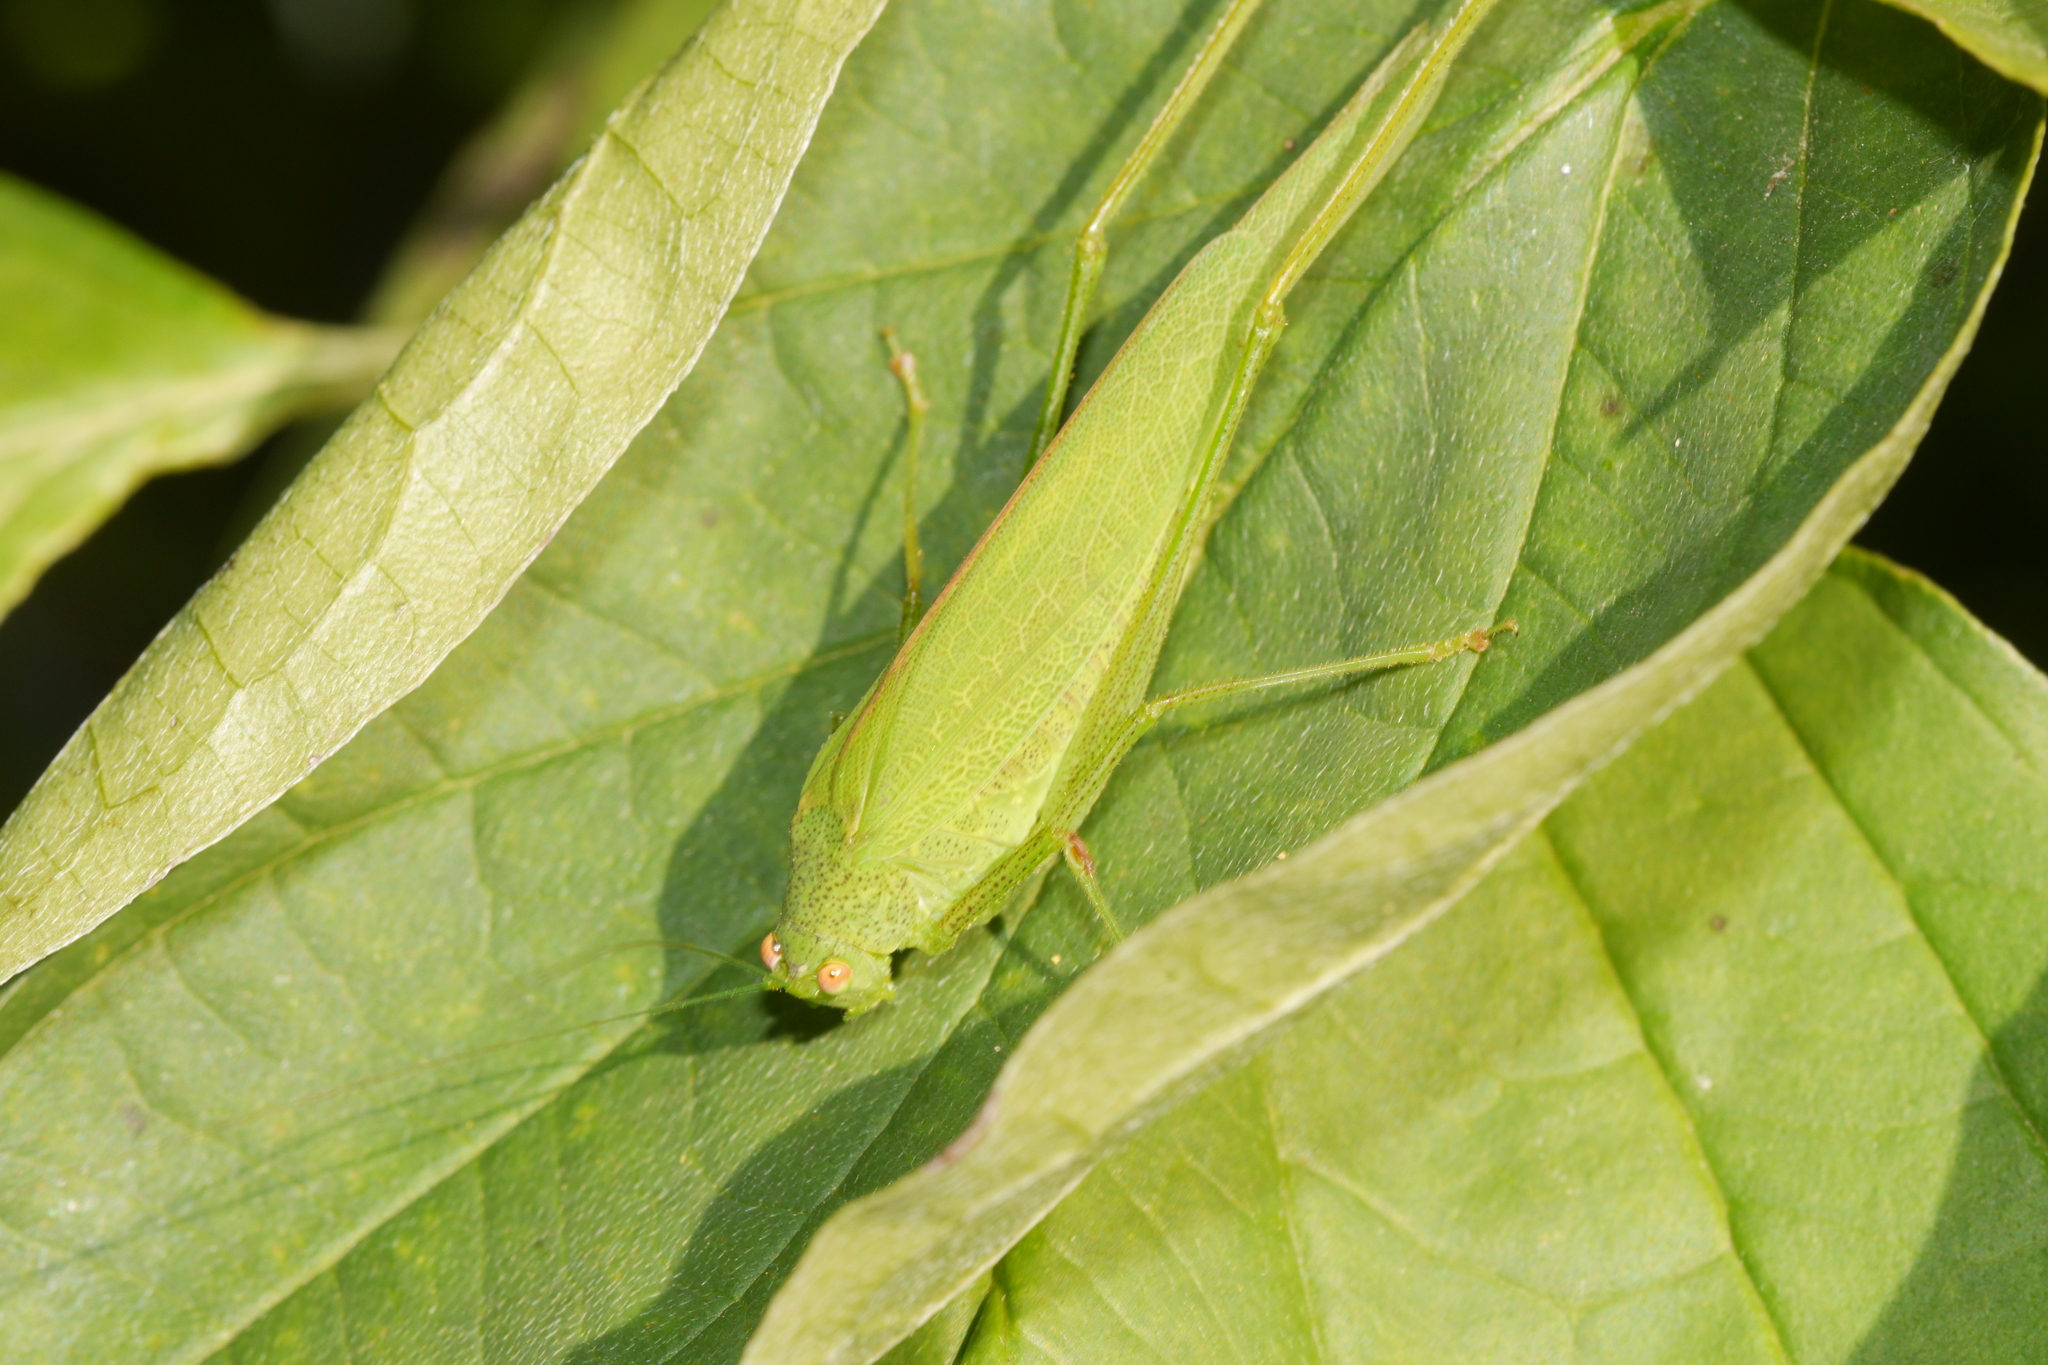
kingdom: Animalia
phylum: Arthropoda
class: Insecta
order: Orthoptera
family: Tettigoniidae
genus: Phaneroptera
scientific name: Phaneroptera nana
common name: Southern sickle bush-cricket
